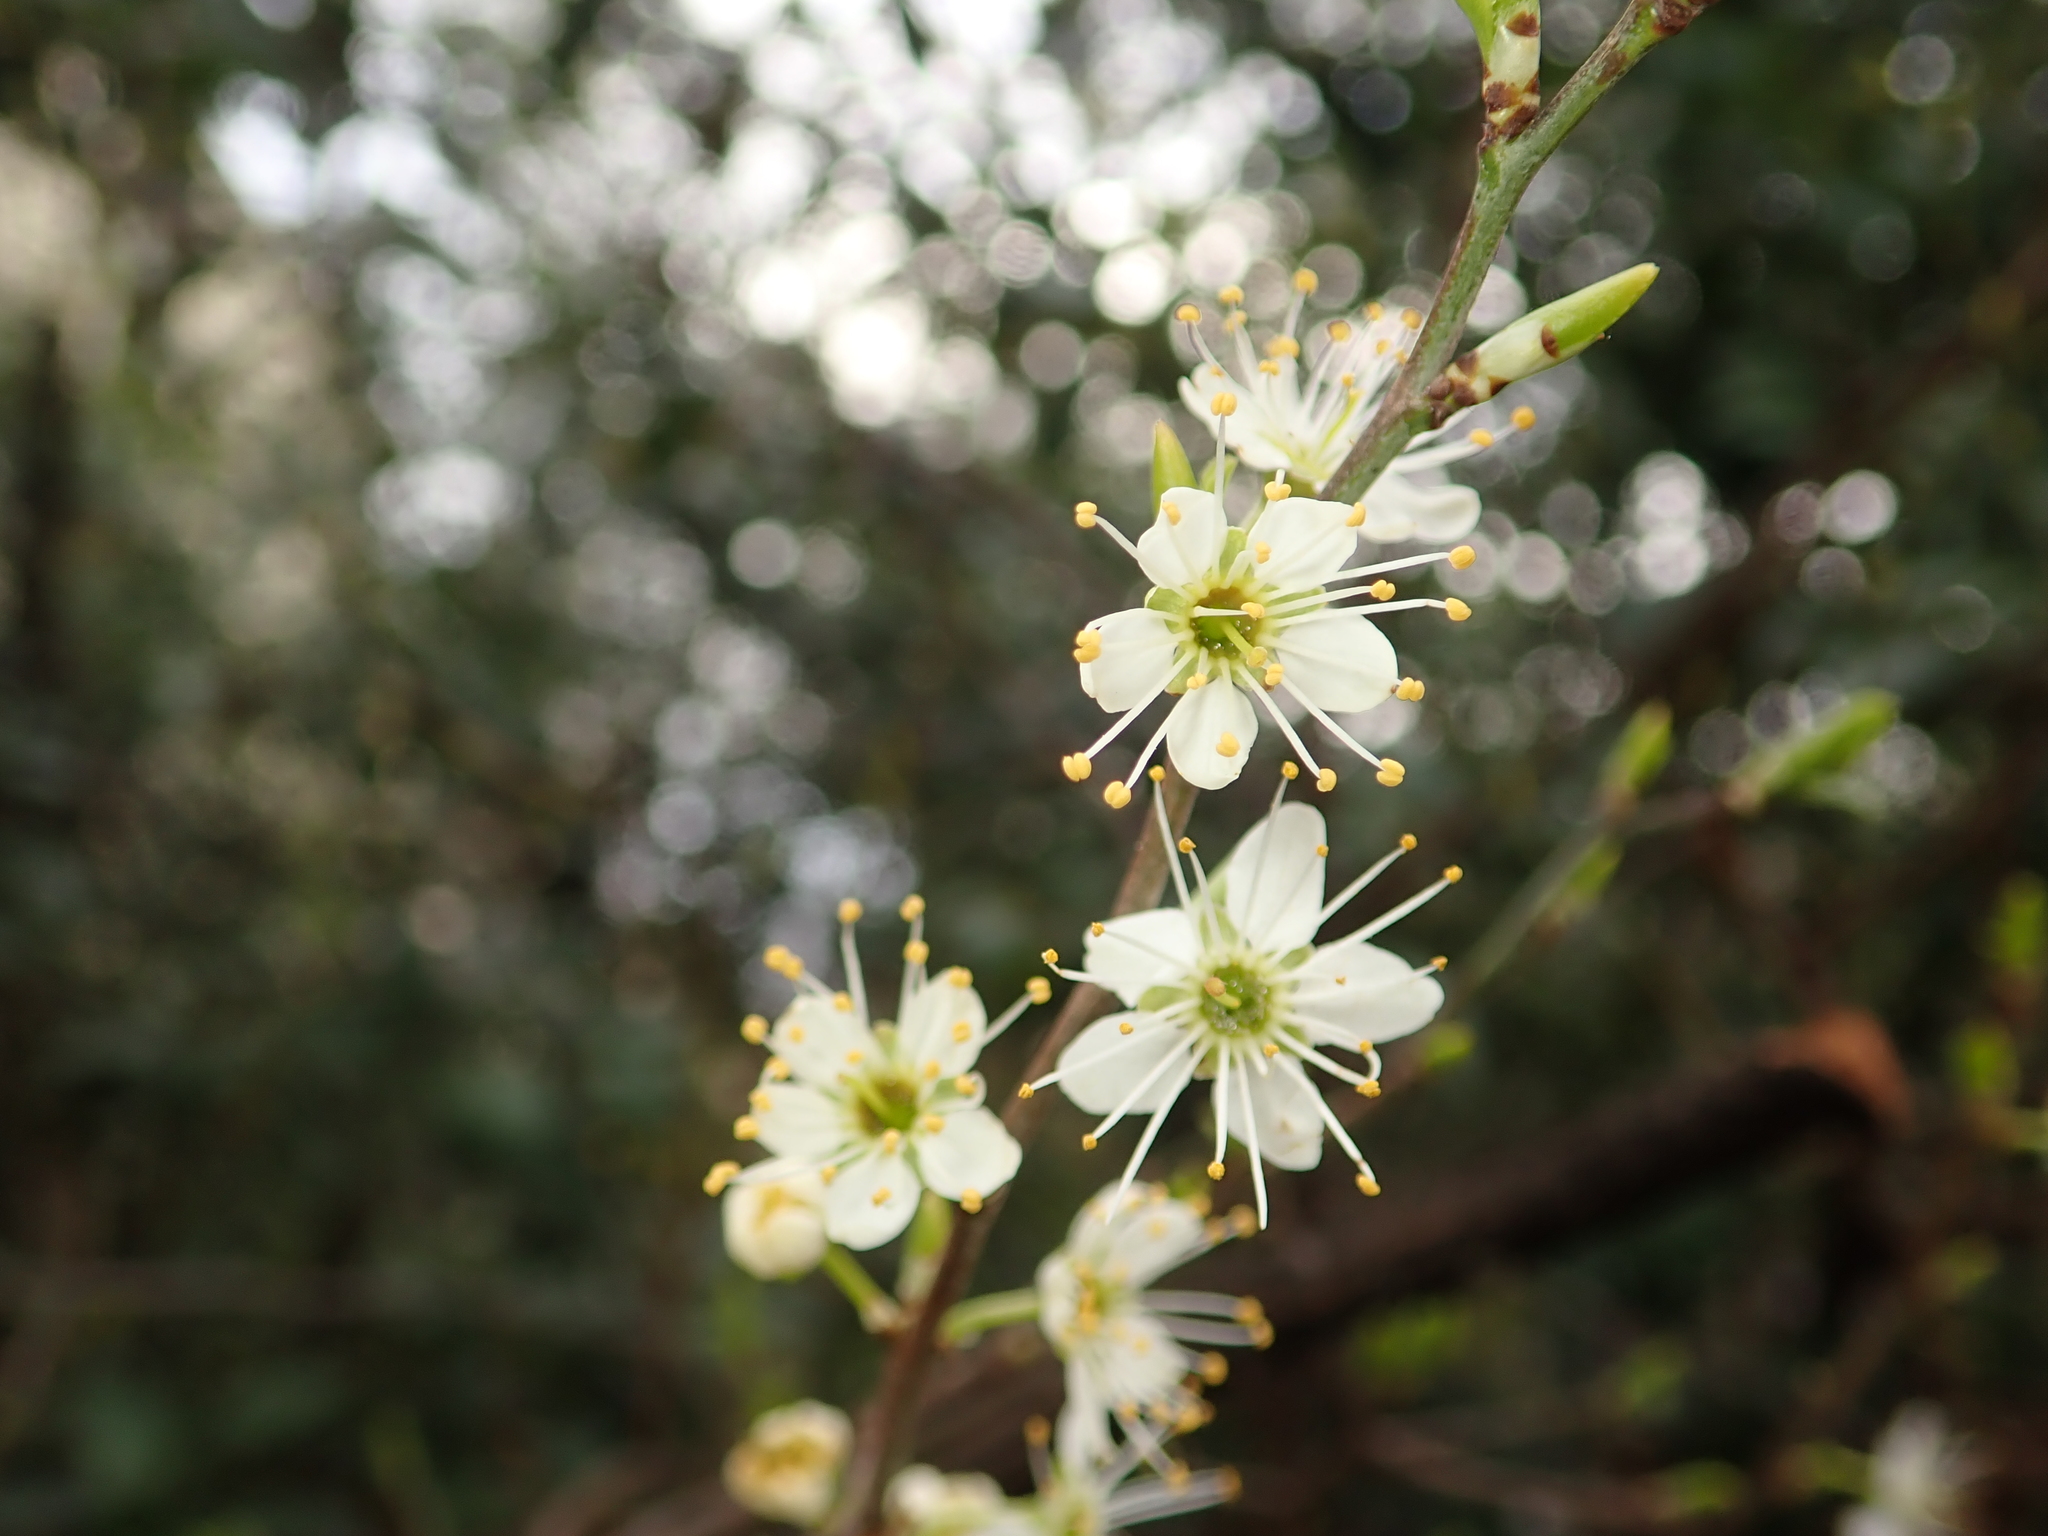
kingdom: Plantae
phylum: Tracheophyta
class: Magnoliopsida
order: Rosales
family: Rosaceae
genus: Prunus
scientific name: Prunus cerasifera
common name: Cherry plum
